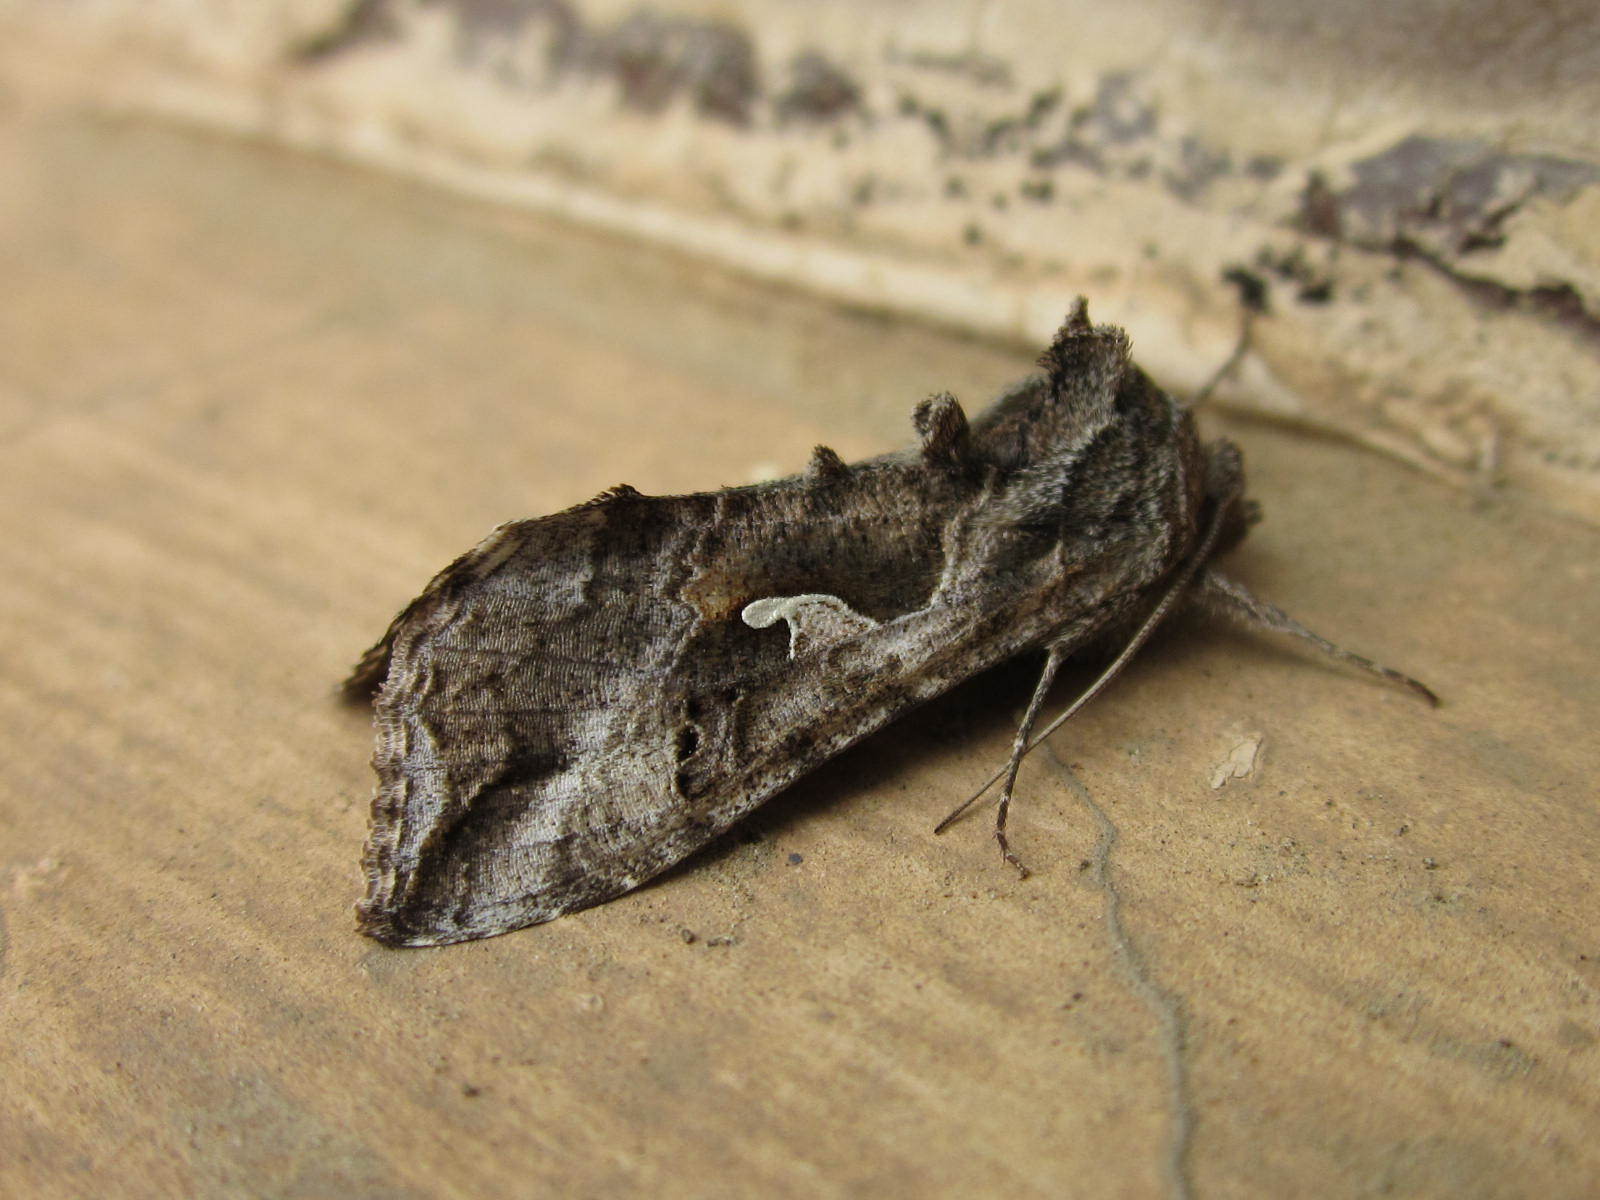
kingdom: Animalia
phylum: Arthropoda
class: Insecta
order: Lepidoptera
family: Noctuidae
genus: Autoplusia
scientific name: Autoplusia gammoides
